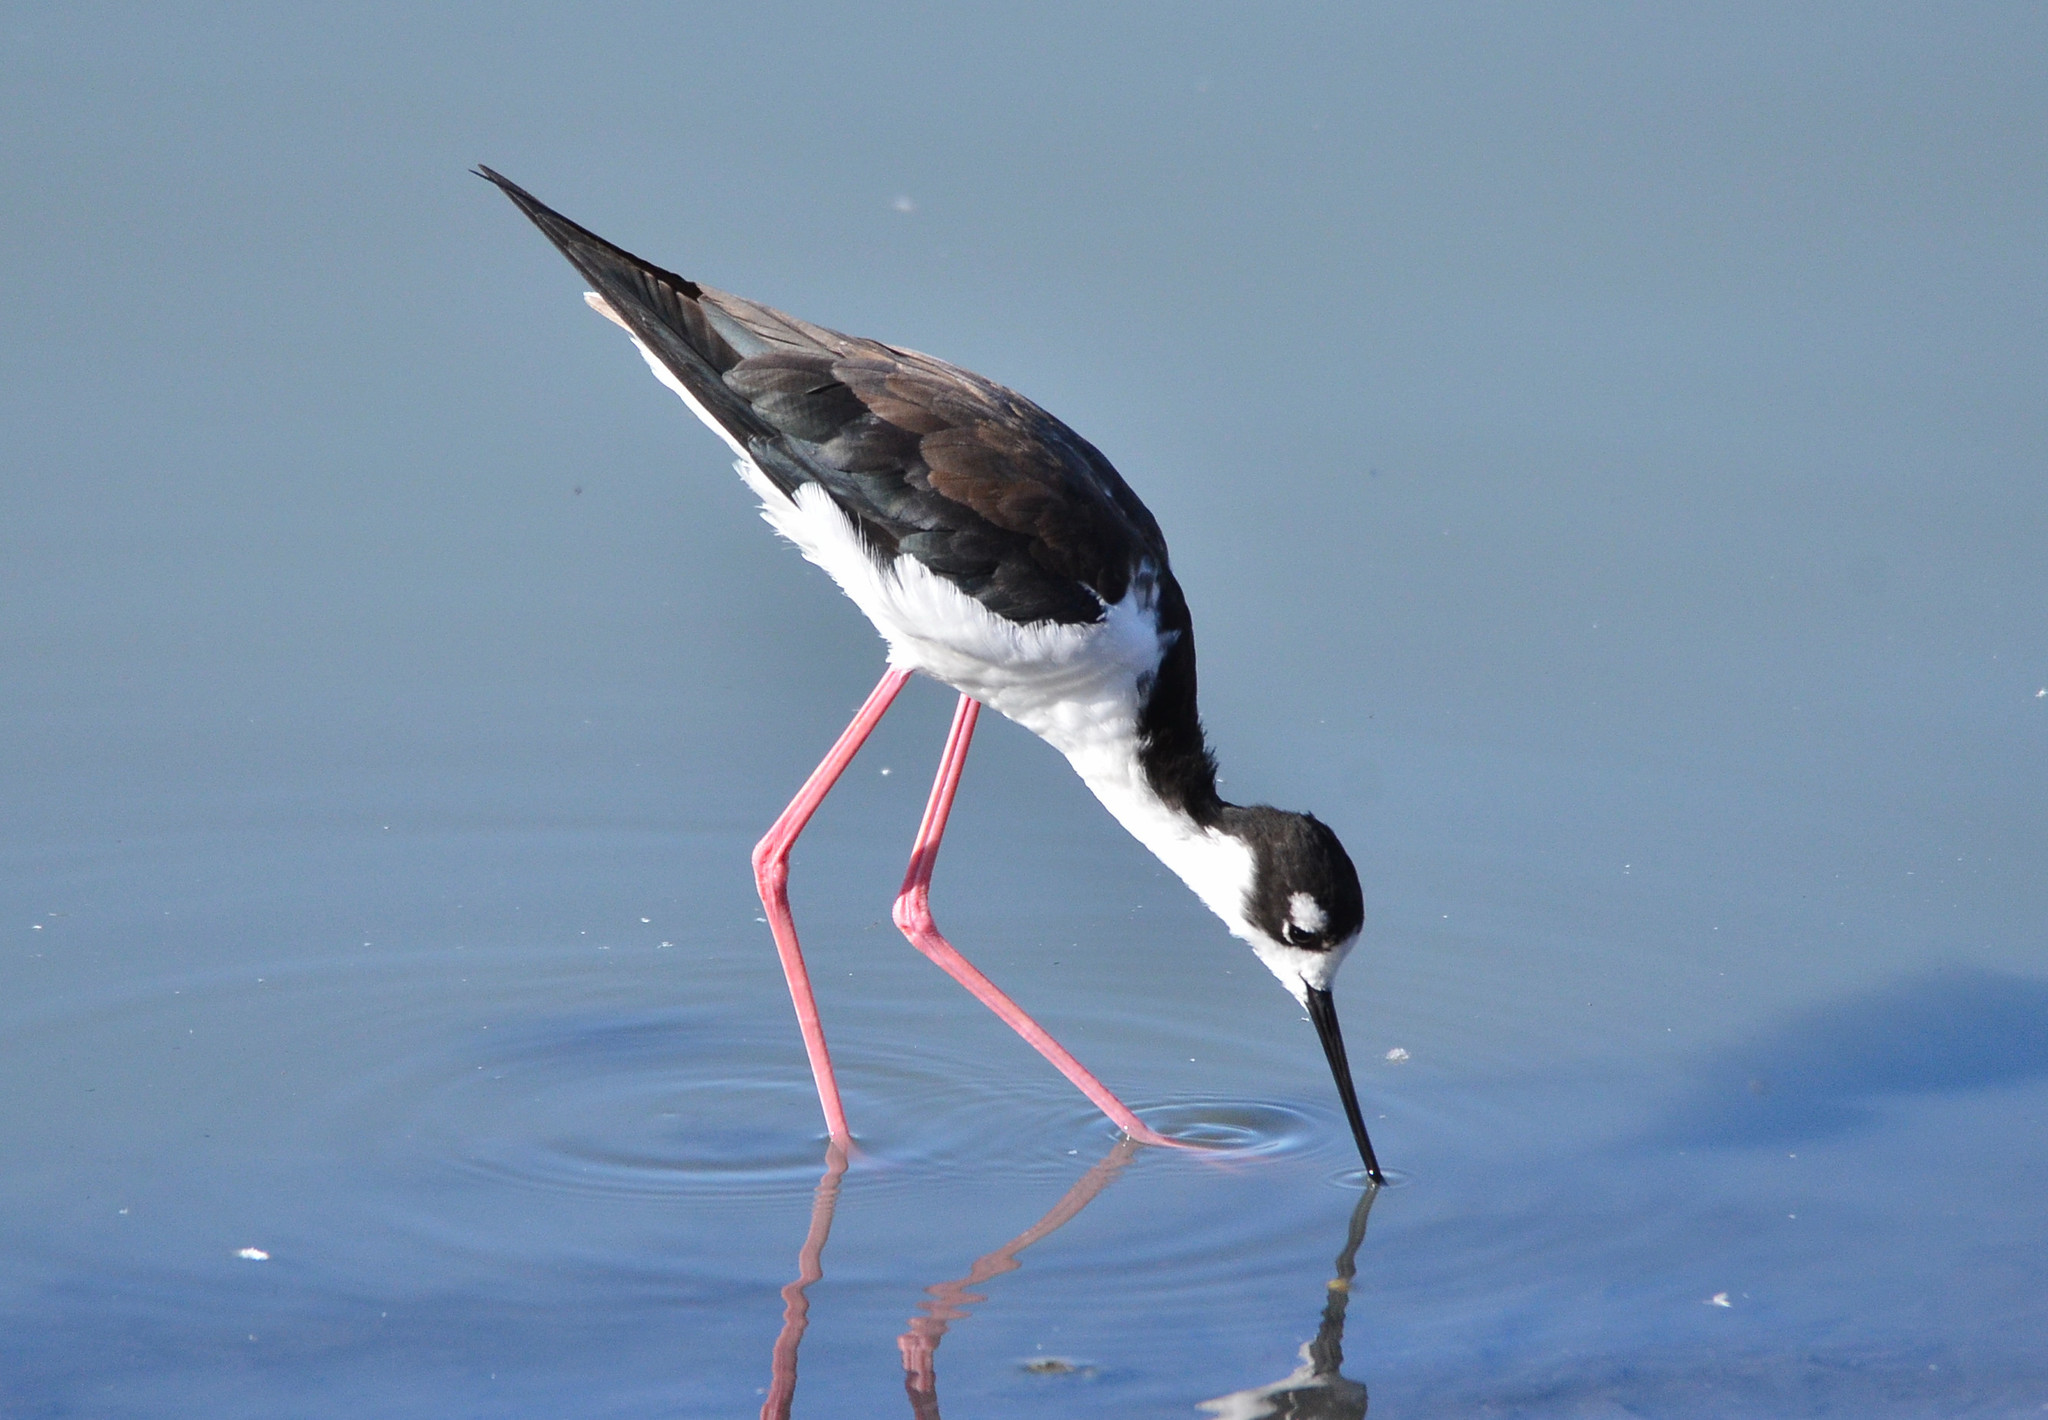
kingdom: Animalia
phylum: Chordata
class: Aves
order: Charadriiformes
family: Recurvirostridae
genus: Himantopus
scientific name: Himantopus mexicanus
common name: Black-necked stilt
